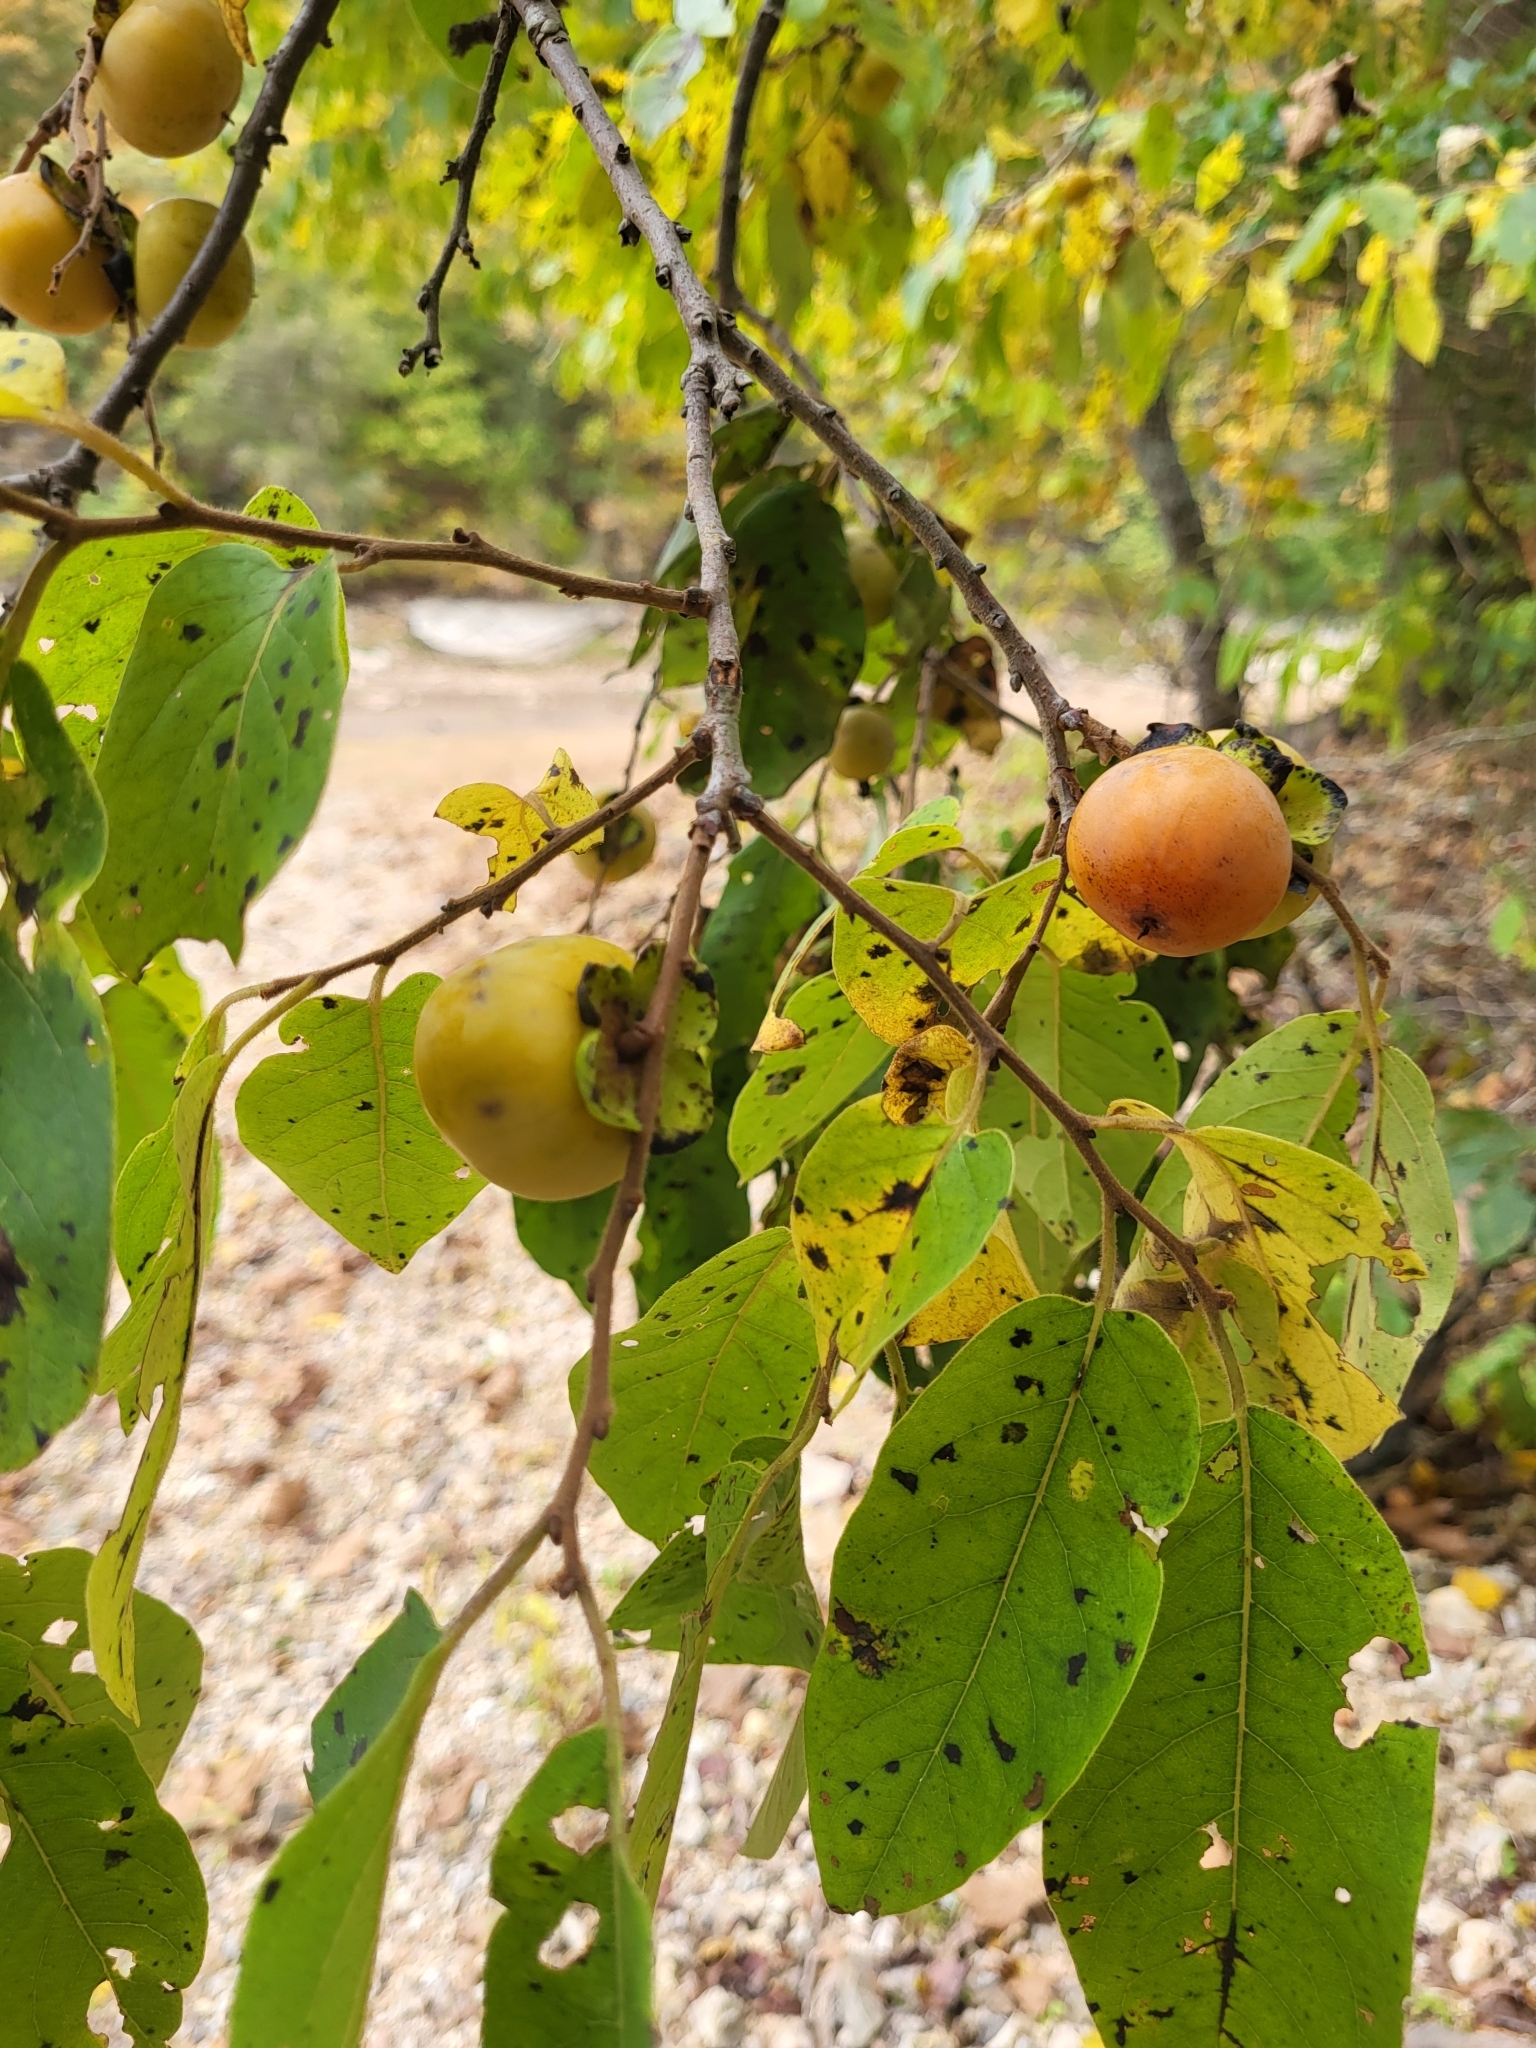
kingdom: Plantae
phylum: Tracheophyta
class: Magnoliopsida
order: Ericales
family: Ebenaceae
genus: Diospyros
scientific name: Diospyros virginiana
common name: Persimmon
